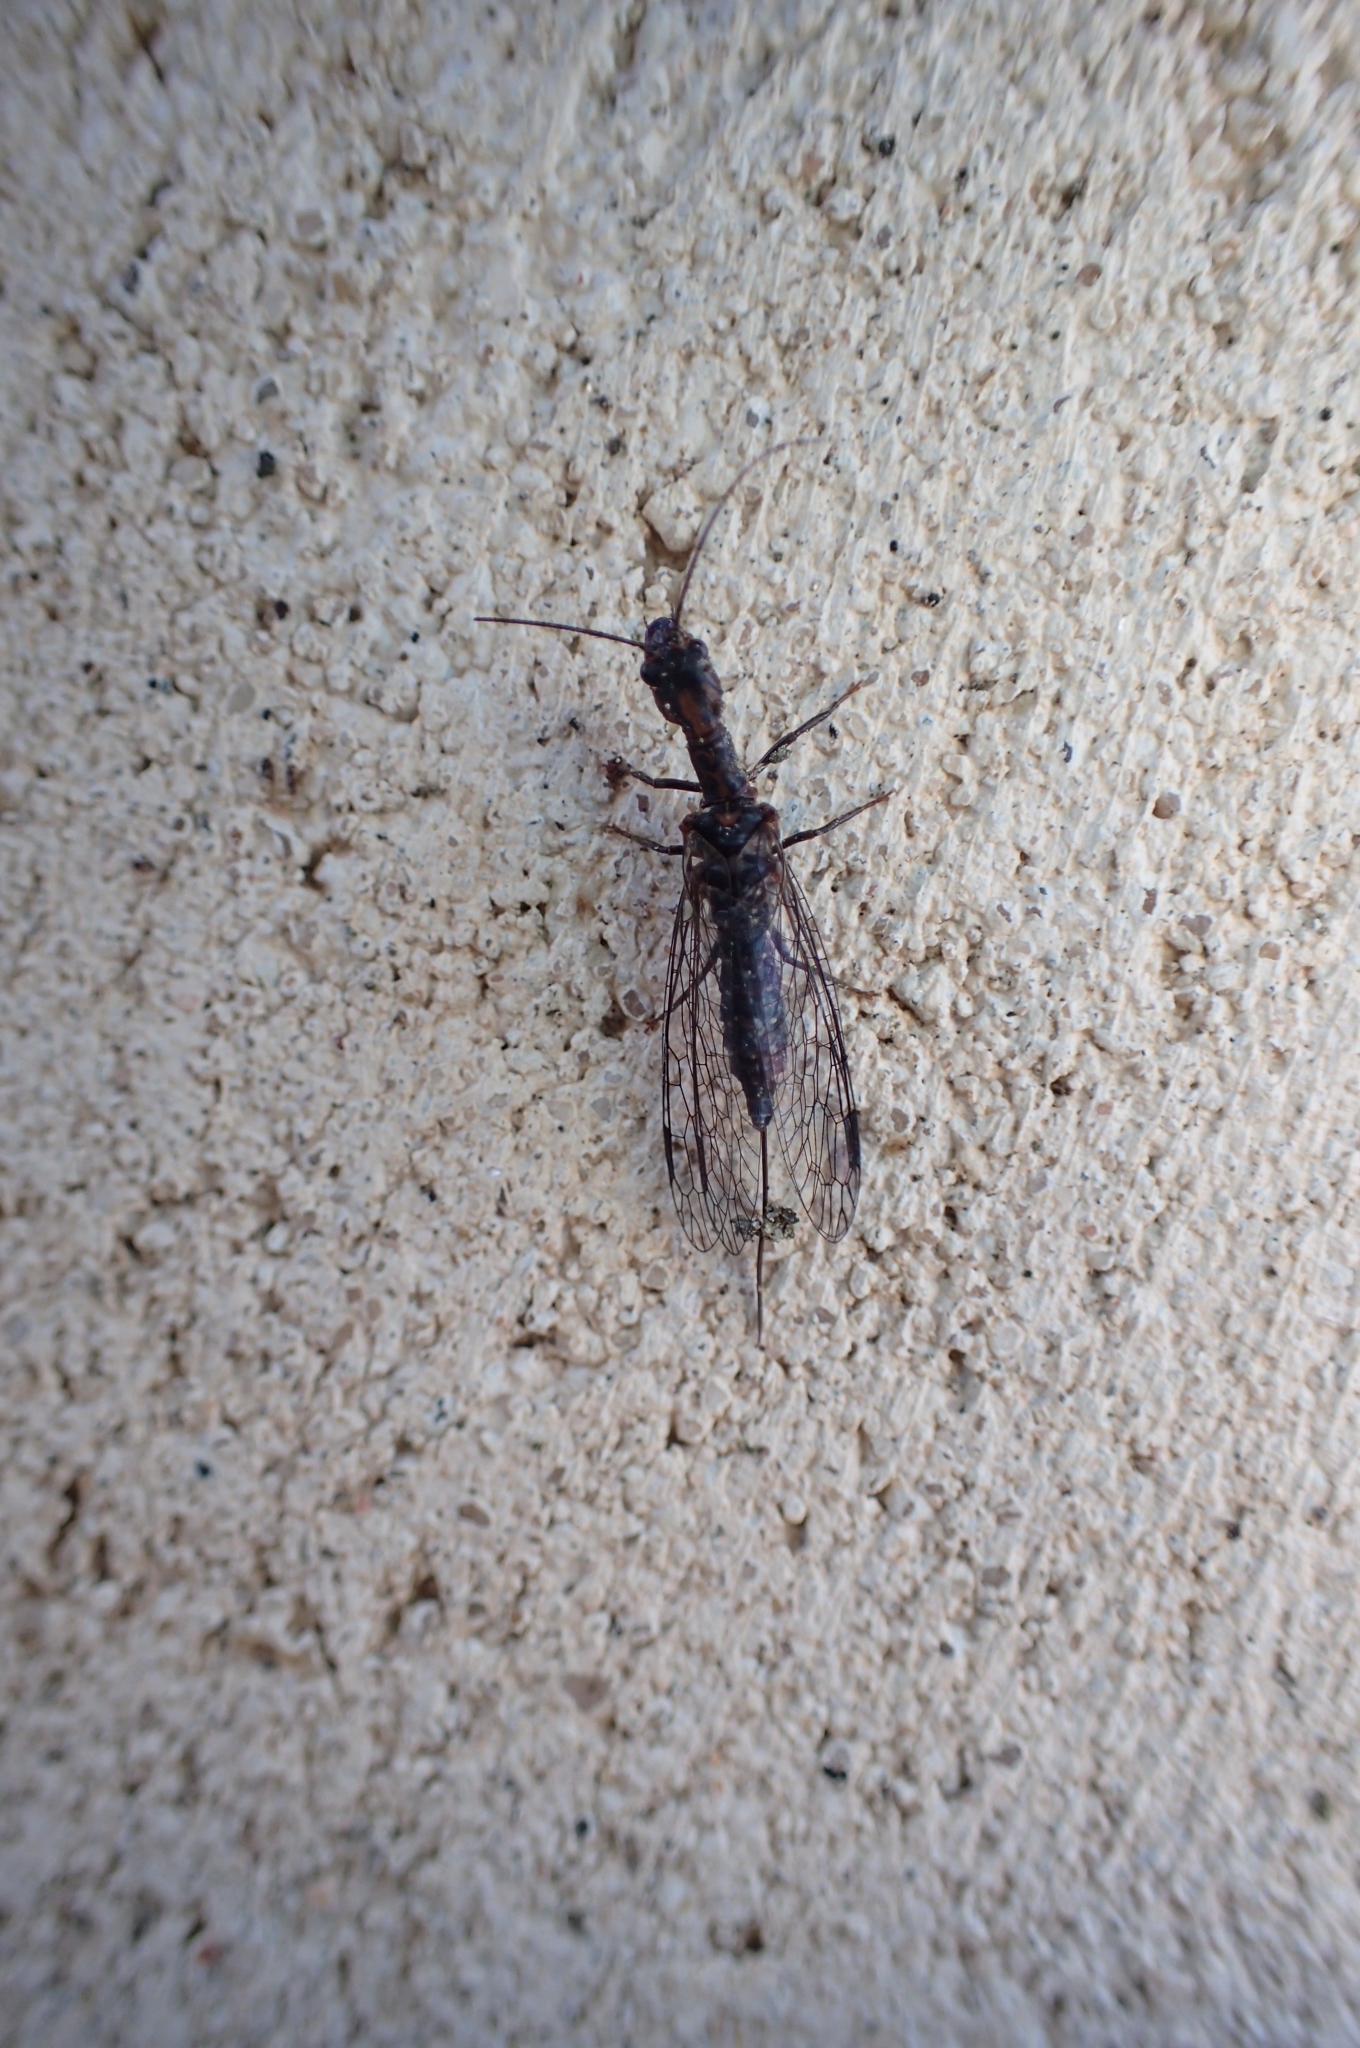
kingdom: Animalia
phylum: Arthropoda
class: Insecta
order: Raphidioptera
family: Inocelliidae
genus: Fibla
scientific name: Fibla hesperica
